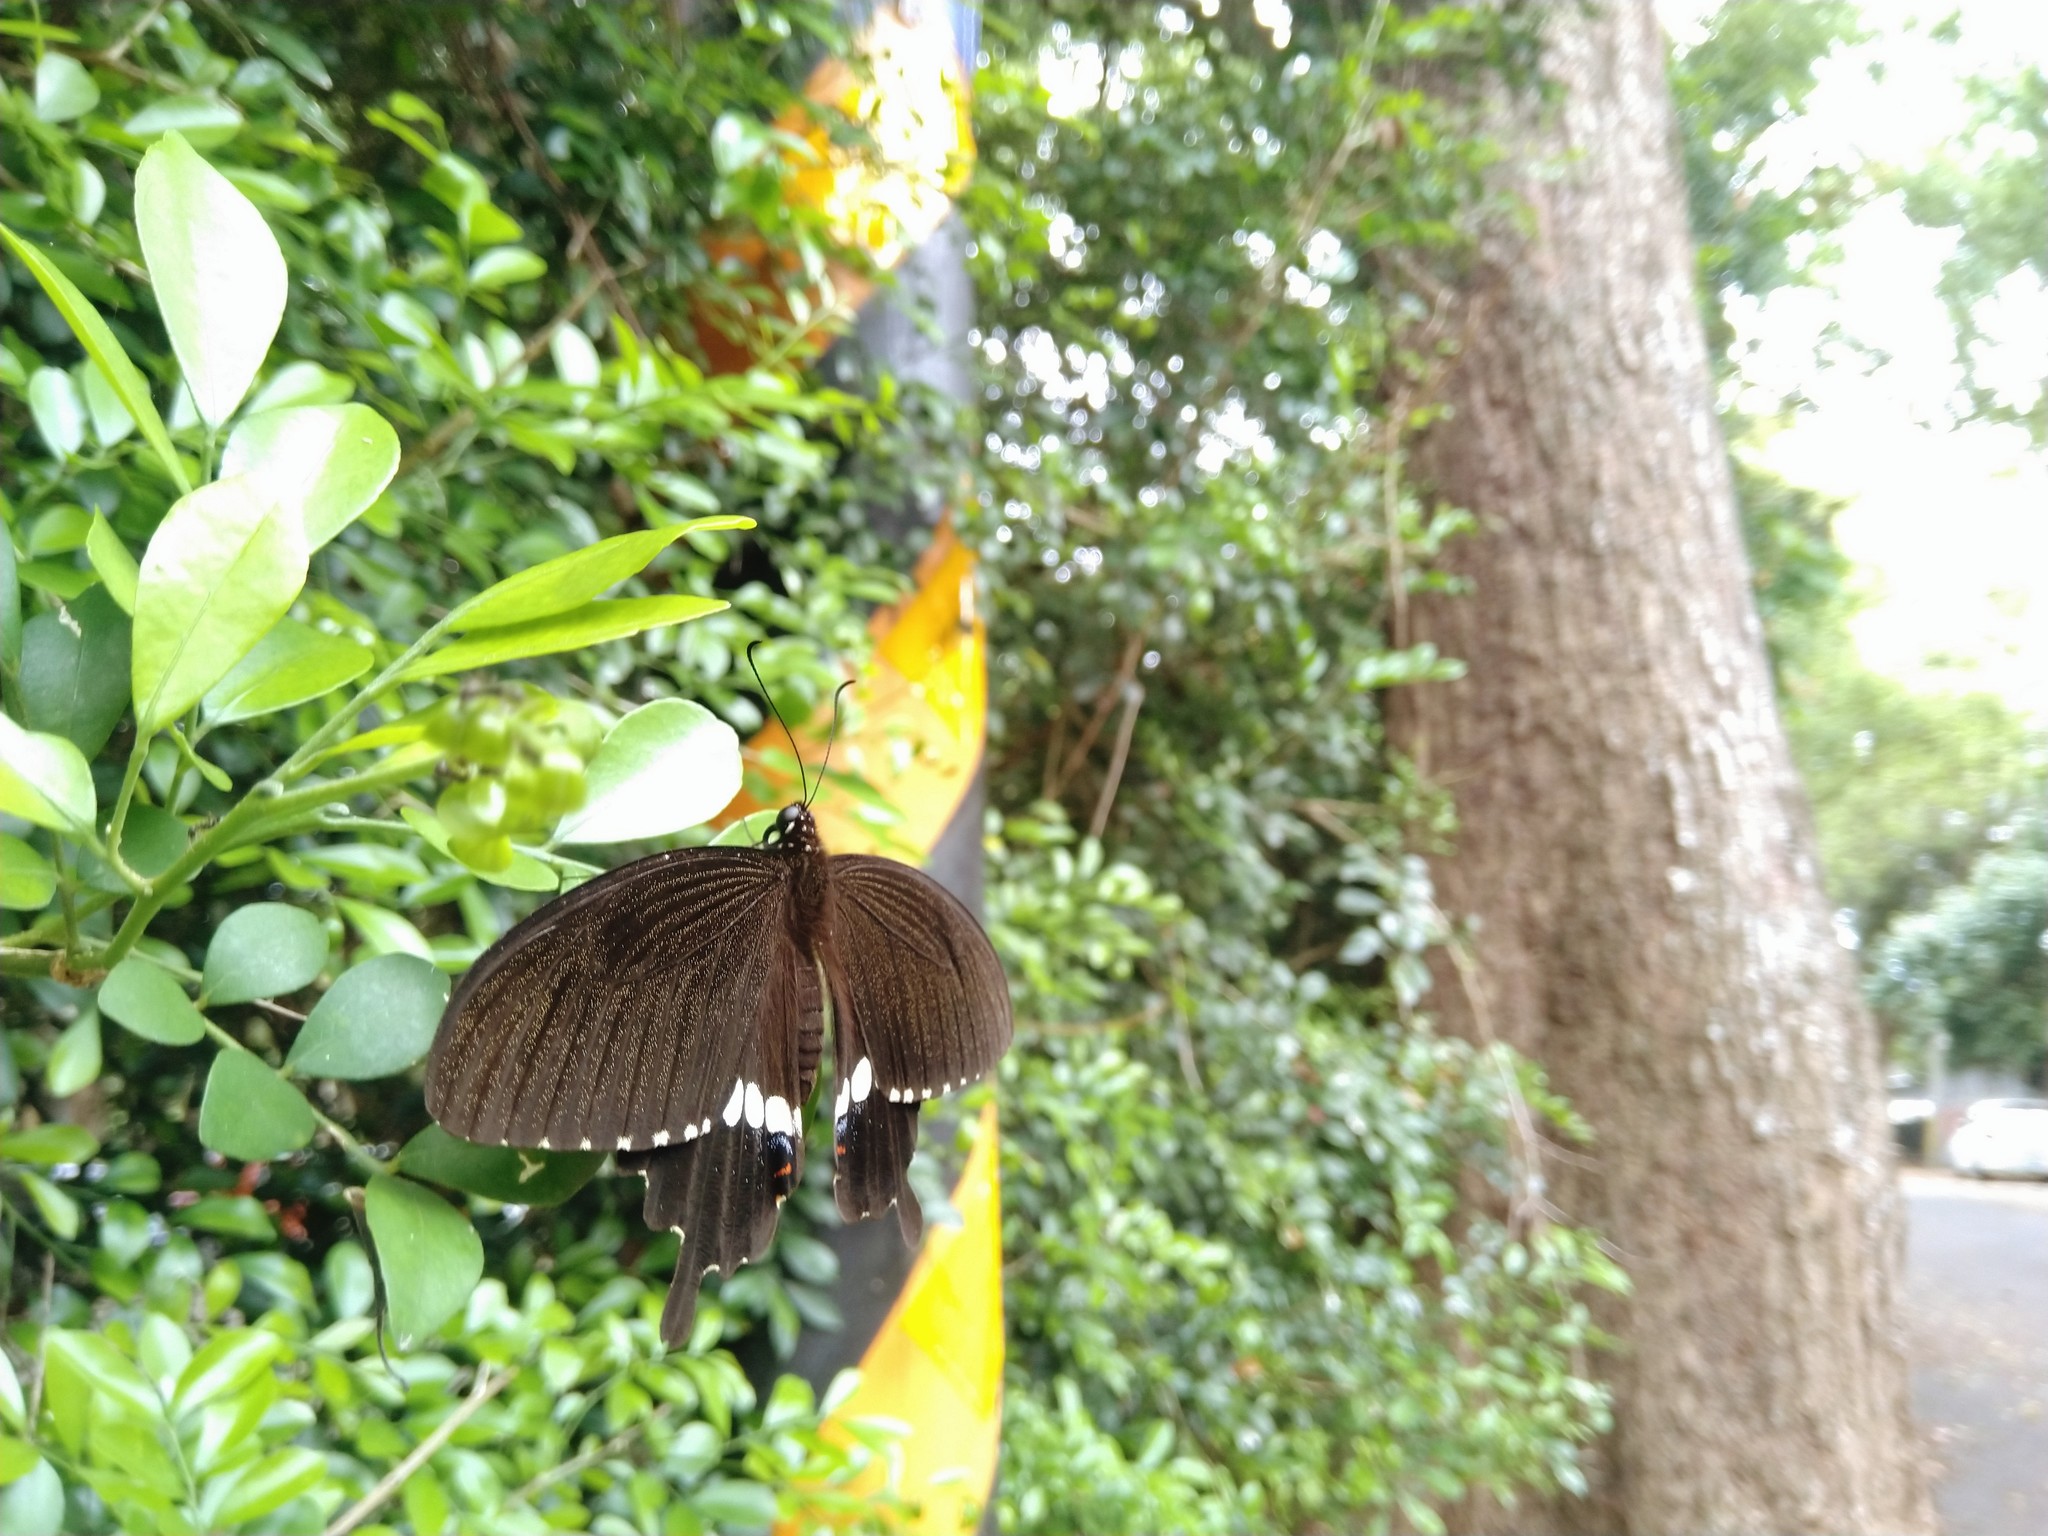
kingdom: Animalia
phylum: Arthropoda
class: Insecta
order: Lepidoptera
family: Papilionidae
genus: Papilio
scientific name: Papilio polytes
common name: Common mormon
